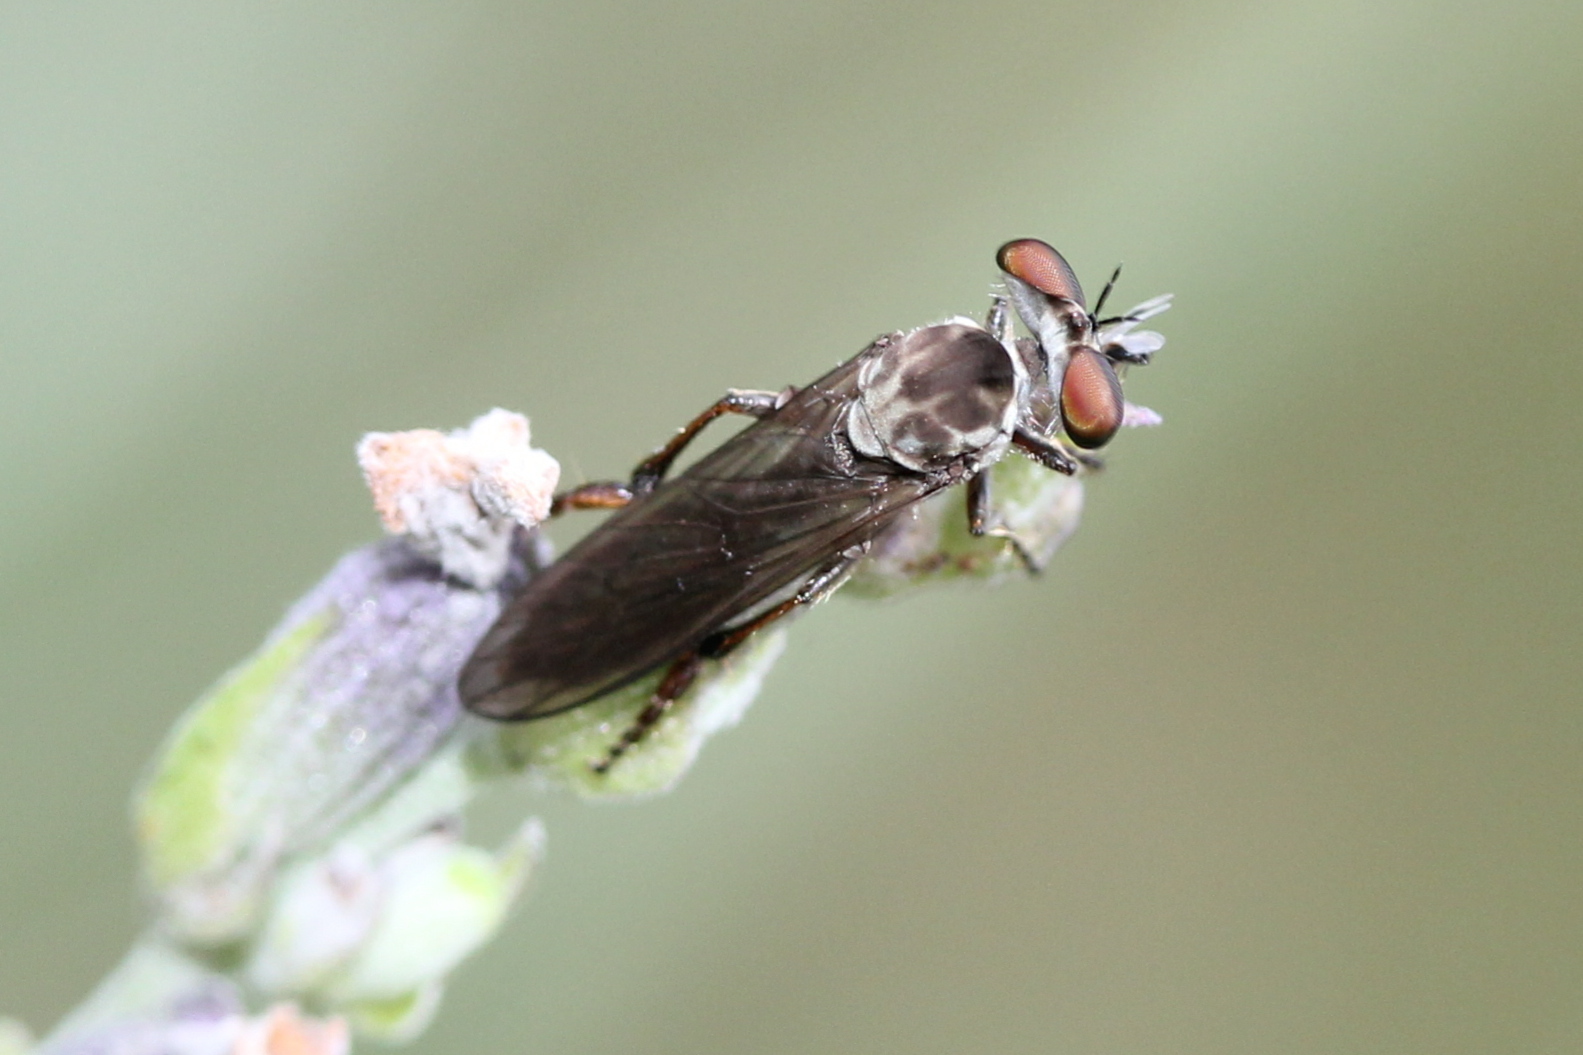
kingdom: Animalia
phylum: Arthropoda
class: Insecta
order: Diptera
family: Asilidae
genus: Holcocephala
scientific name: Holcocephala calva
